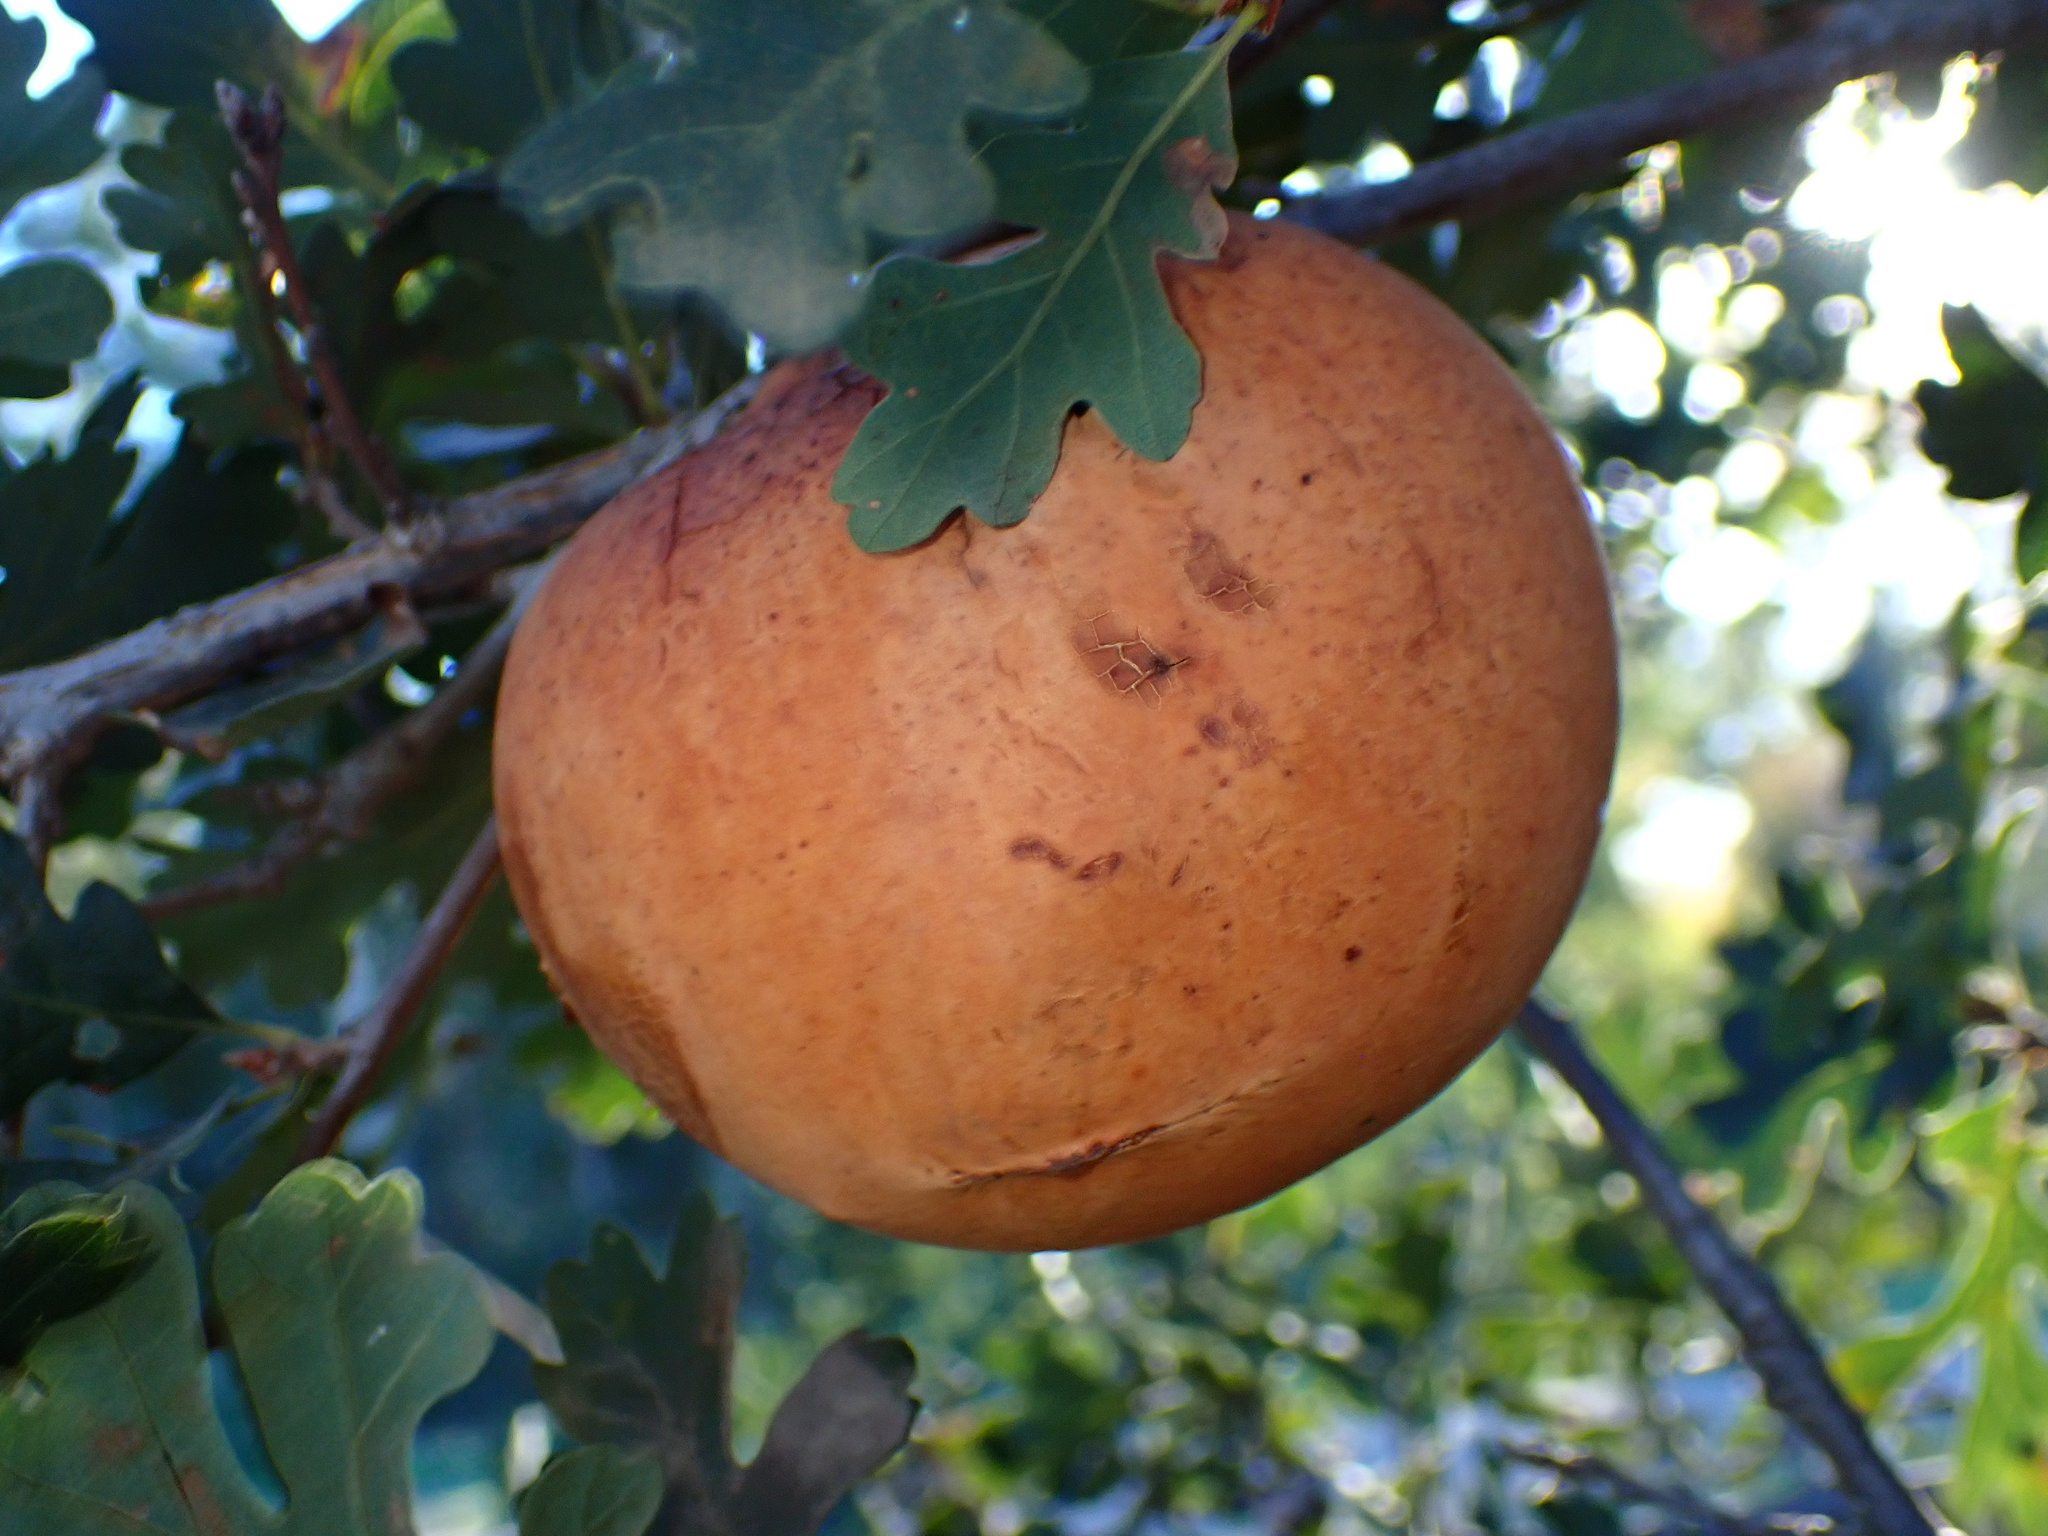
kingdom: Animalia
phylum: Arthropoda
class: Insecta
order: Hymenoptera
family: Cynipidae
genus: Andricus
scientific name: Andricus quercuscalifornicus
